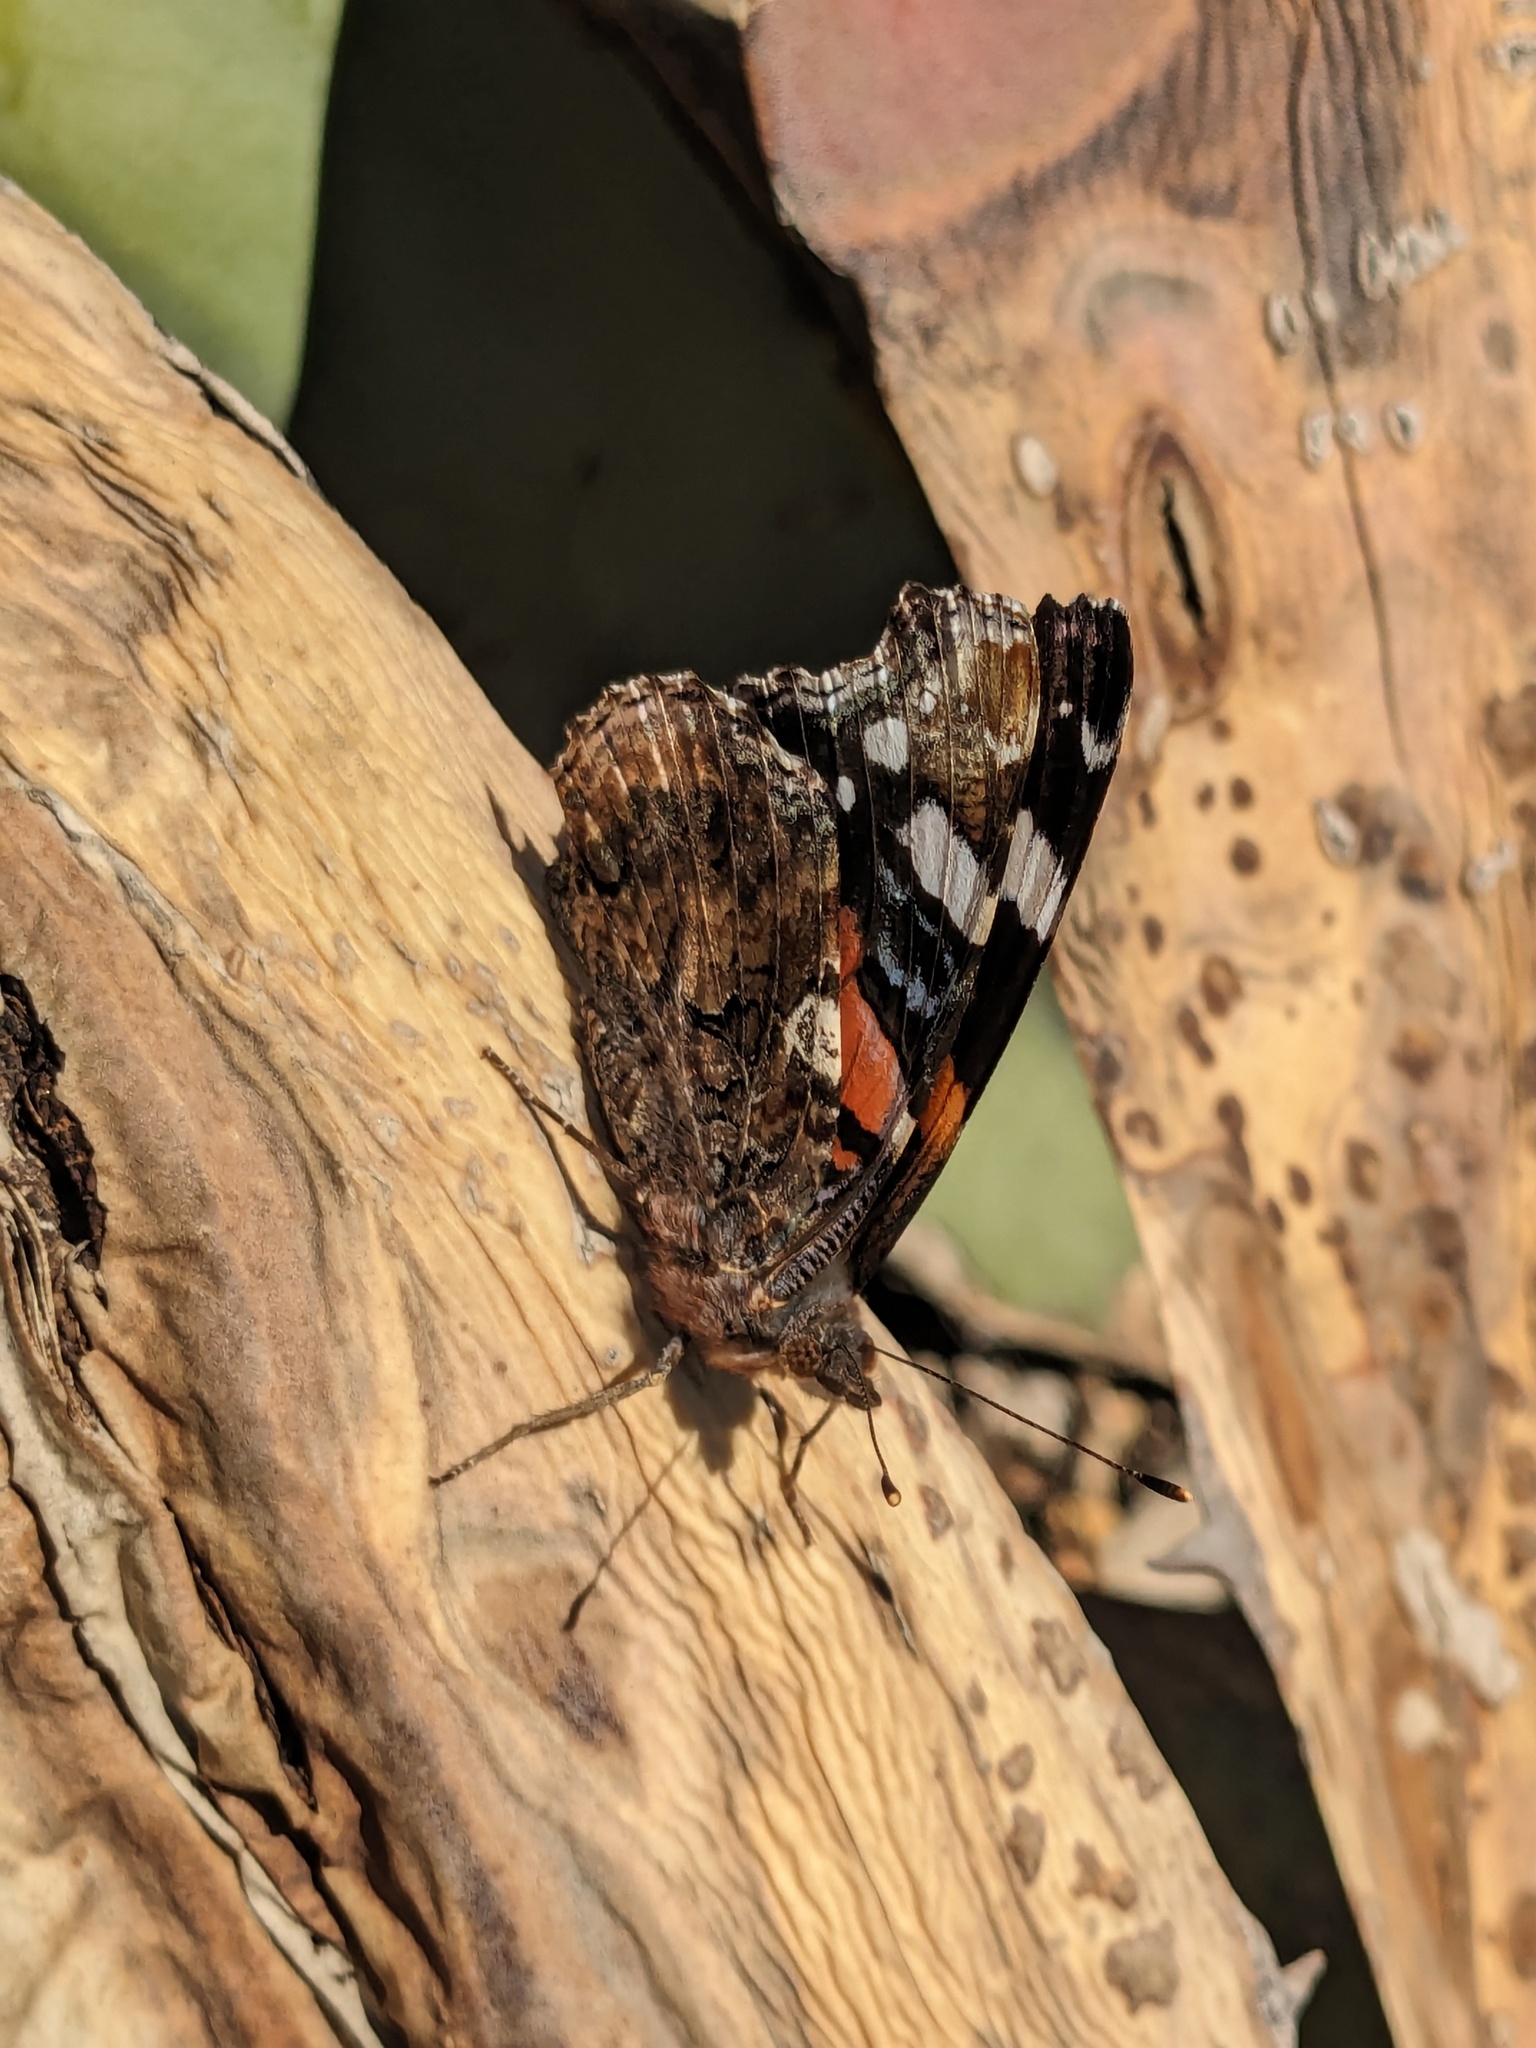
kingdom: Animalia
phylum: Arthropoda
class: Insecta
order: Lepidoptera
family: Nymphalidae
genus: Vanessa
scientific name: Vanessa atalanta
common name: Red admiral
